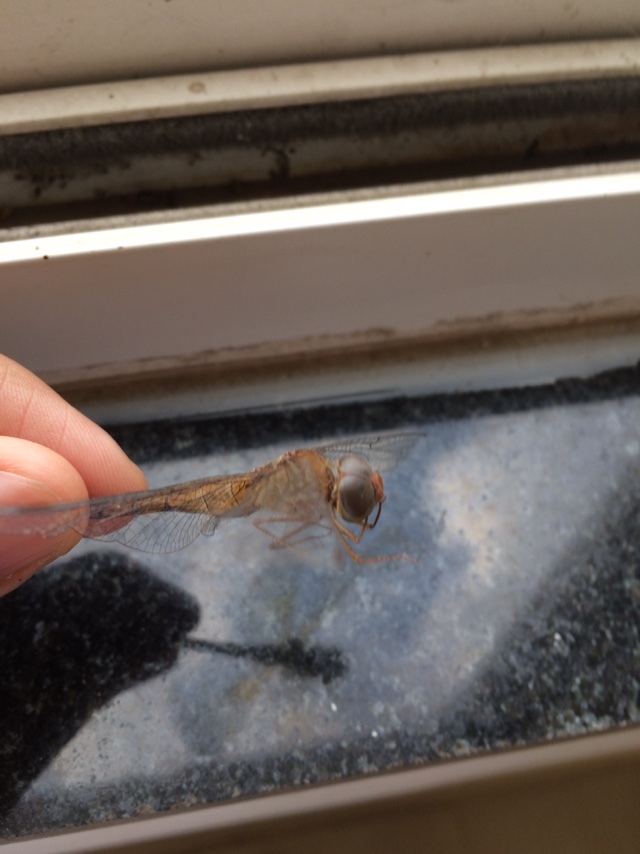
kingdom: Animalia
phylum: Arthropoda
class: Insecta
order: Odonata
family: Libellulidae
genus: Tholymis
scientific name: Tholymis tillarga
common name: Coral-tailed cloud wing
